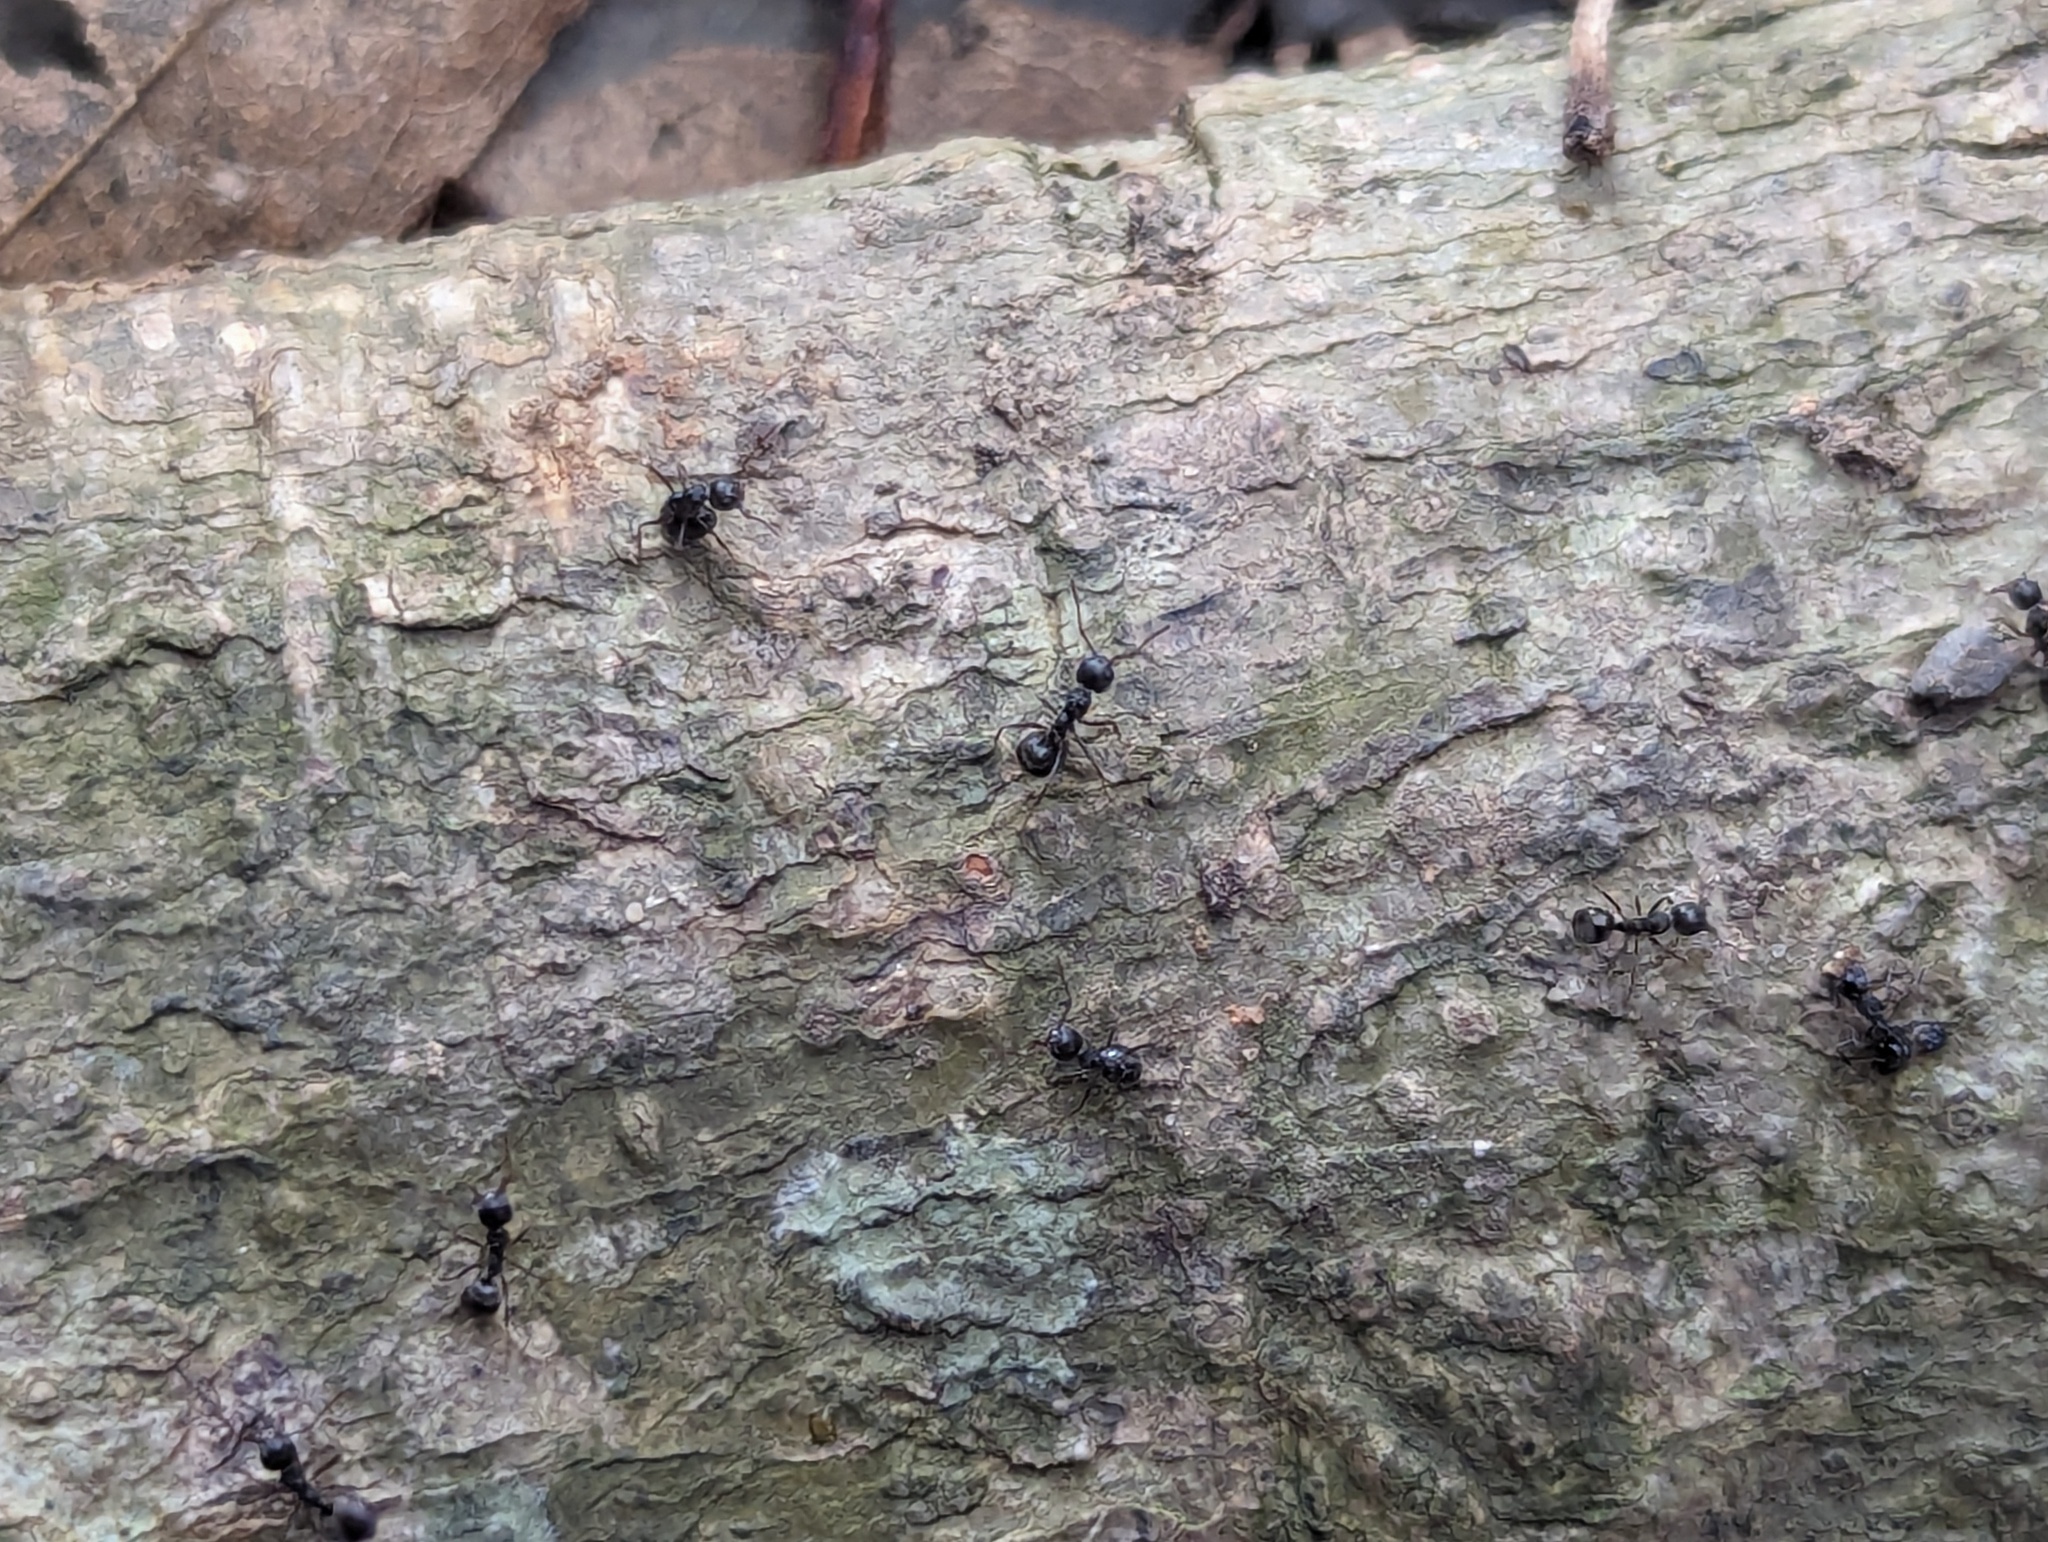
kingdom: Animalia
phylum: Arthropoda
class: Insecta
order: Hymenoptera
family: Formicidae
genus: Dolichoderus
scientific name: Dolichoderus thoracicus
